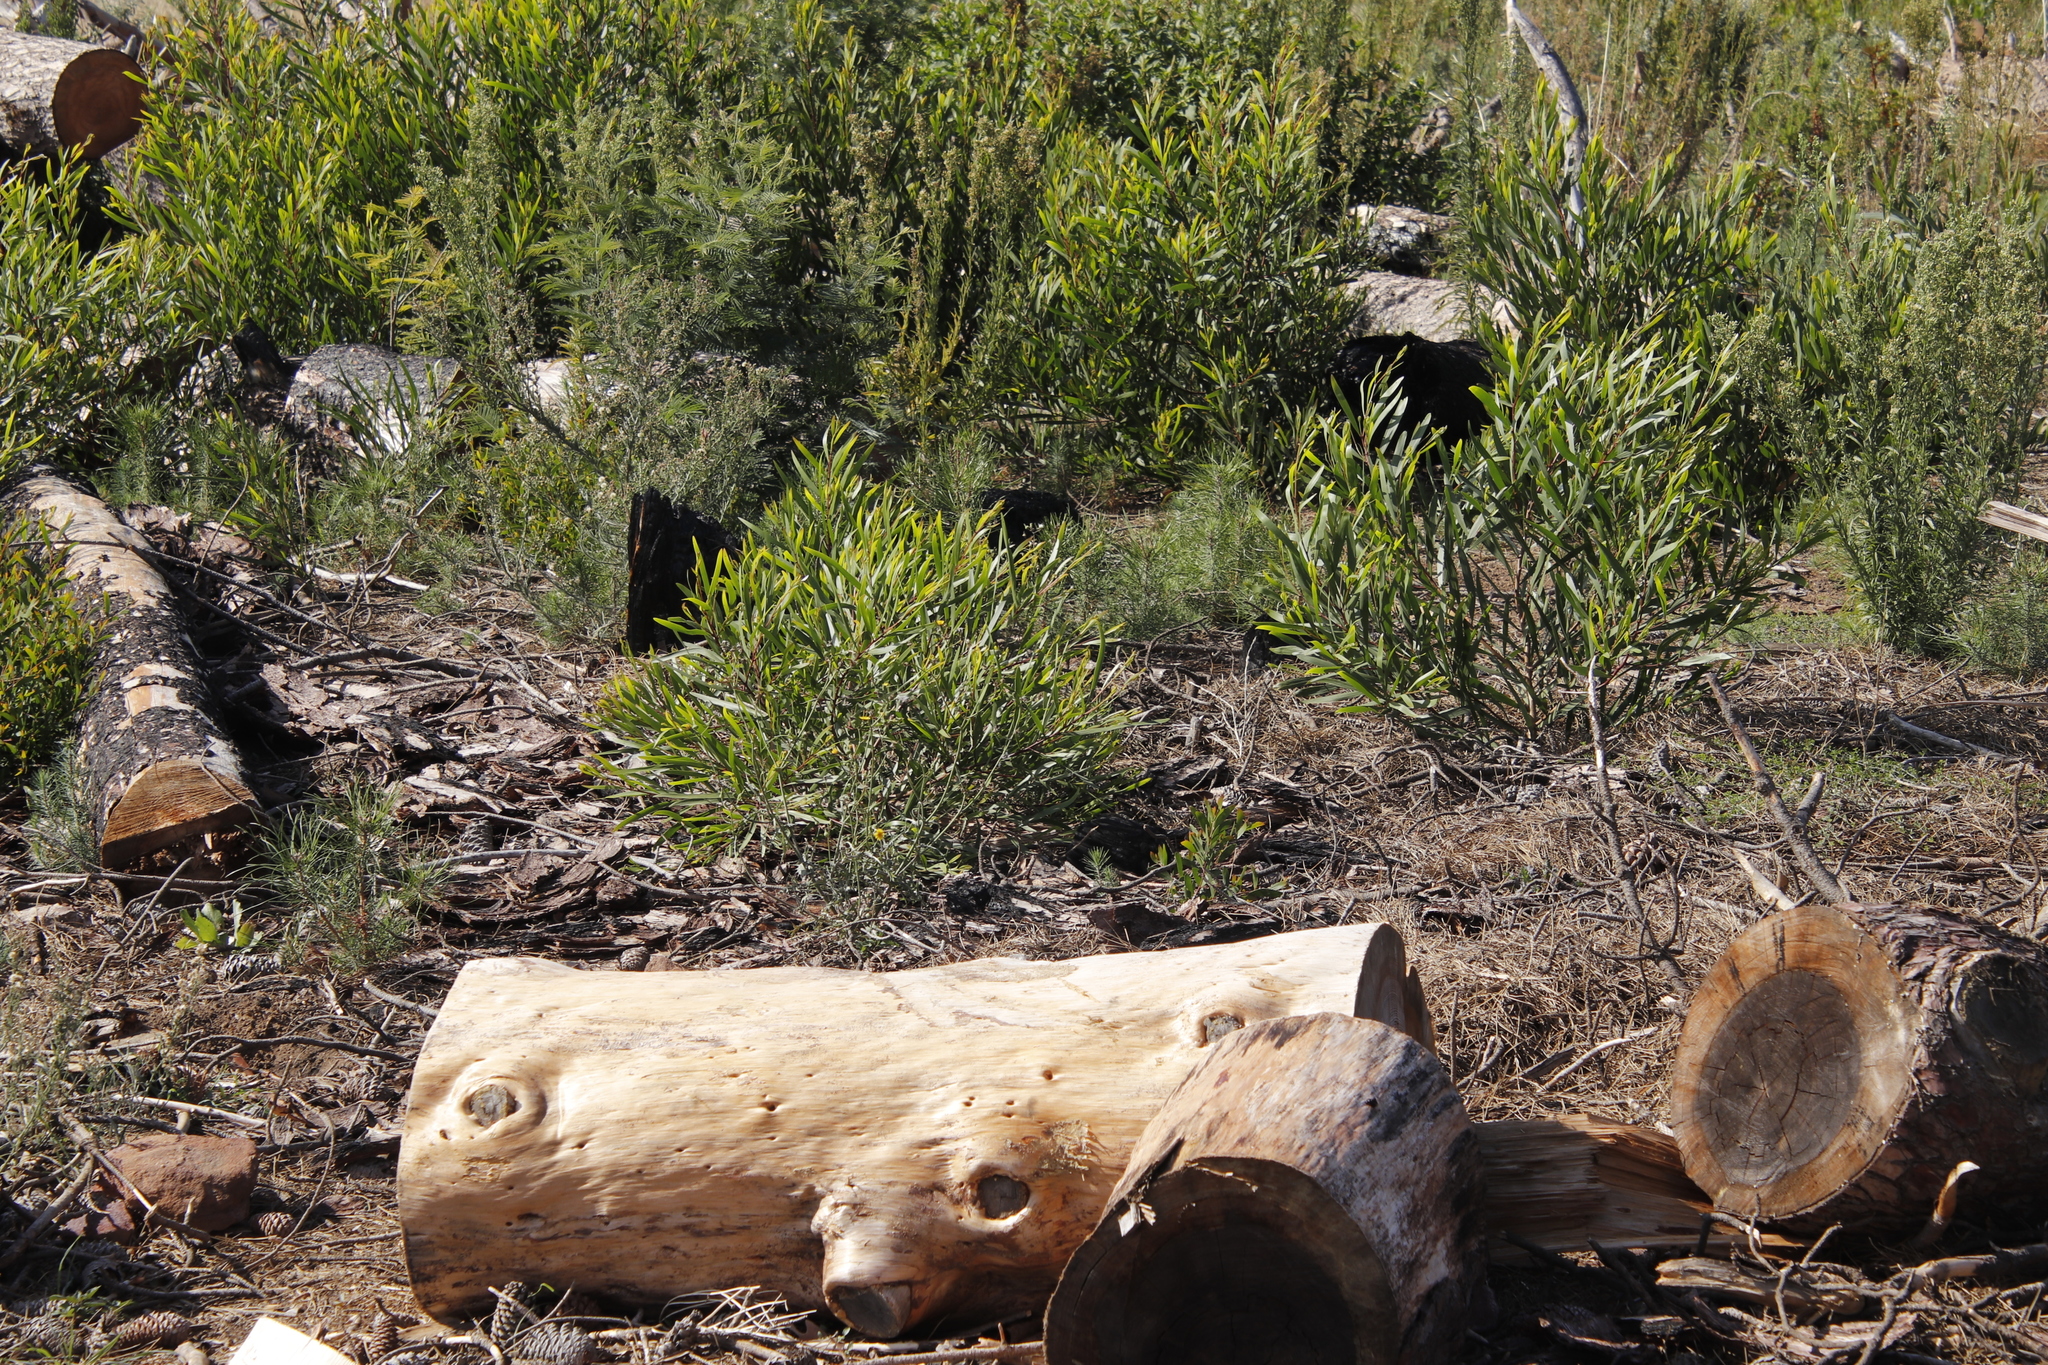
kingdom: Plantae
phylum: Tracheophyta
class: Magnoliopsida
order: Fabales
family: Fabaceae
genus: Acacia
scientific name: Acacia longifolia
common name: Sydney golden wattle
